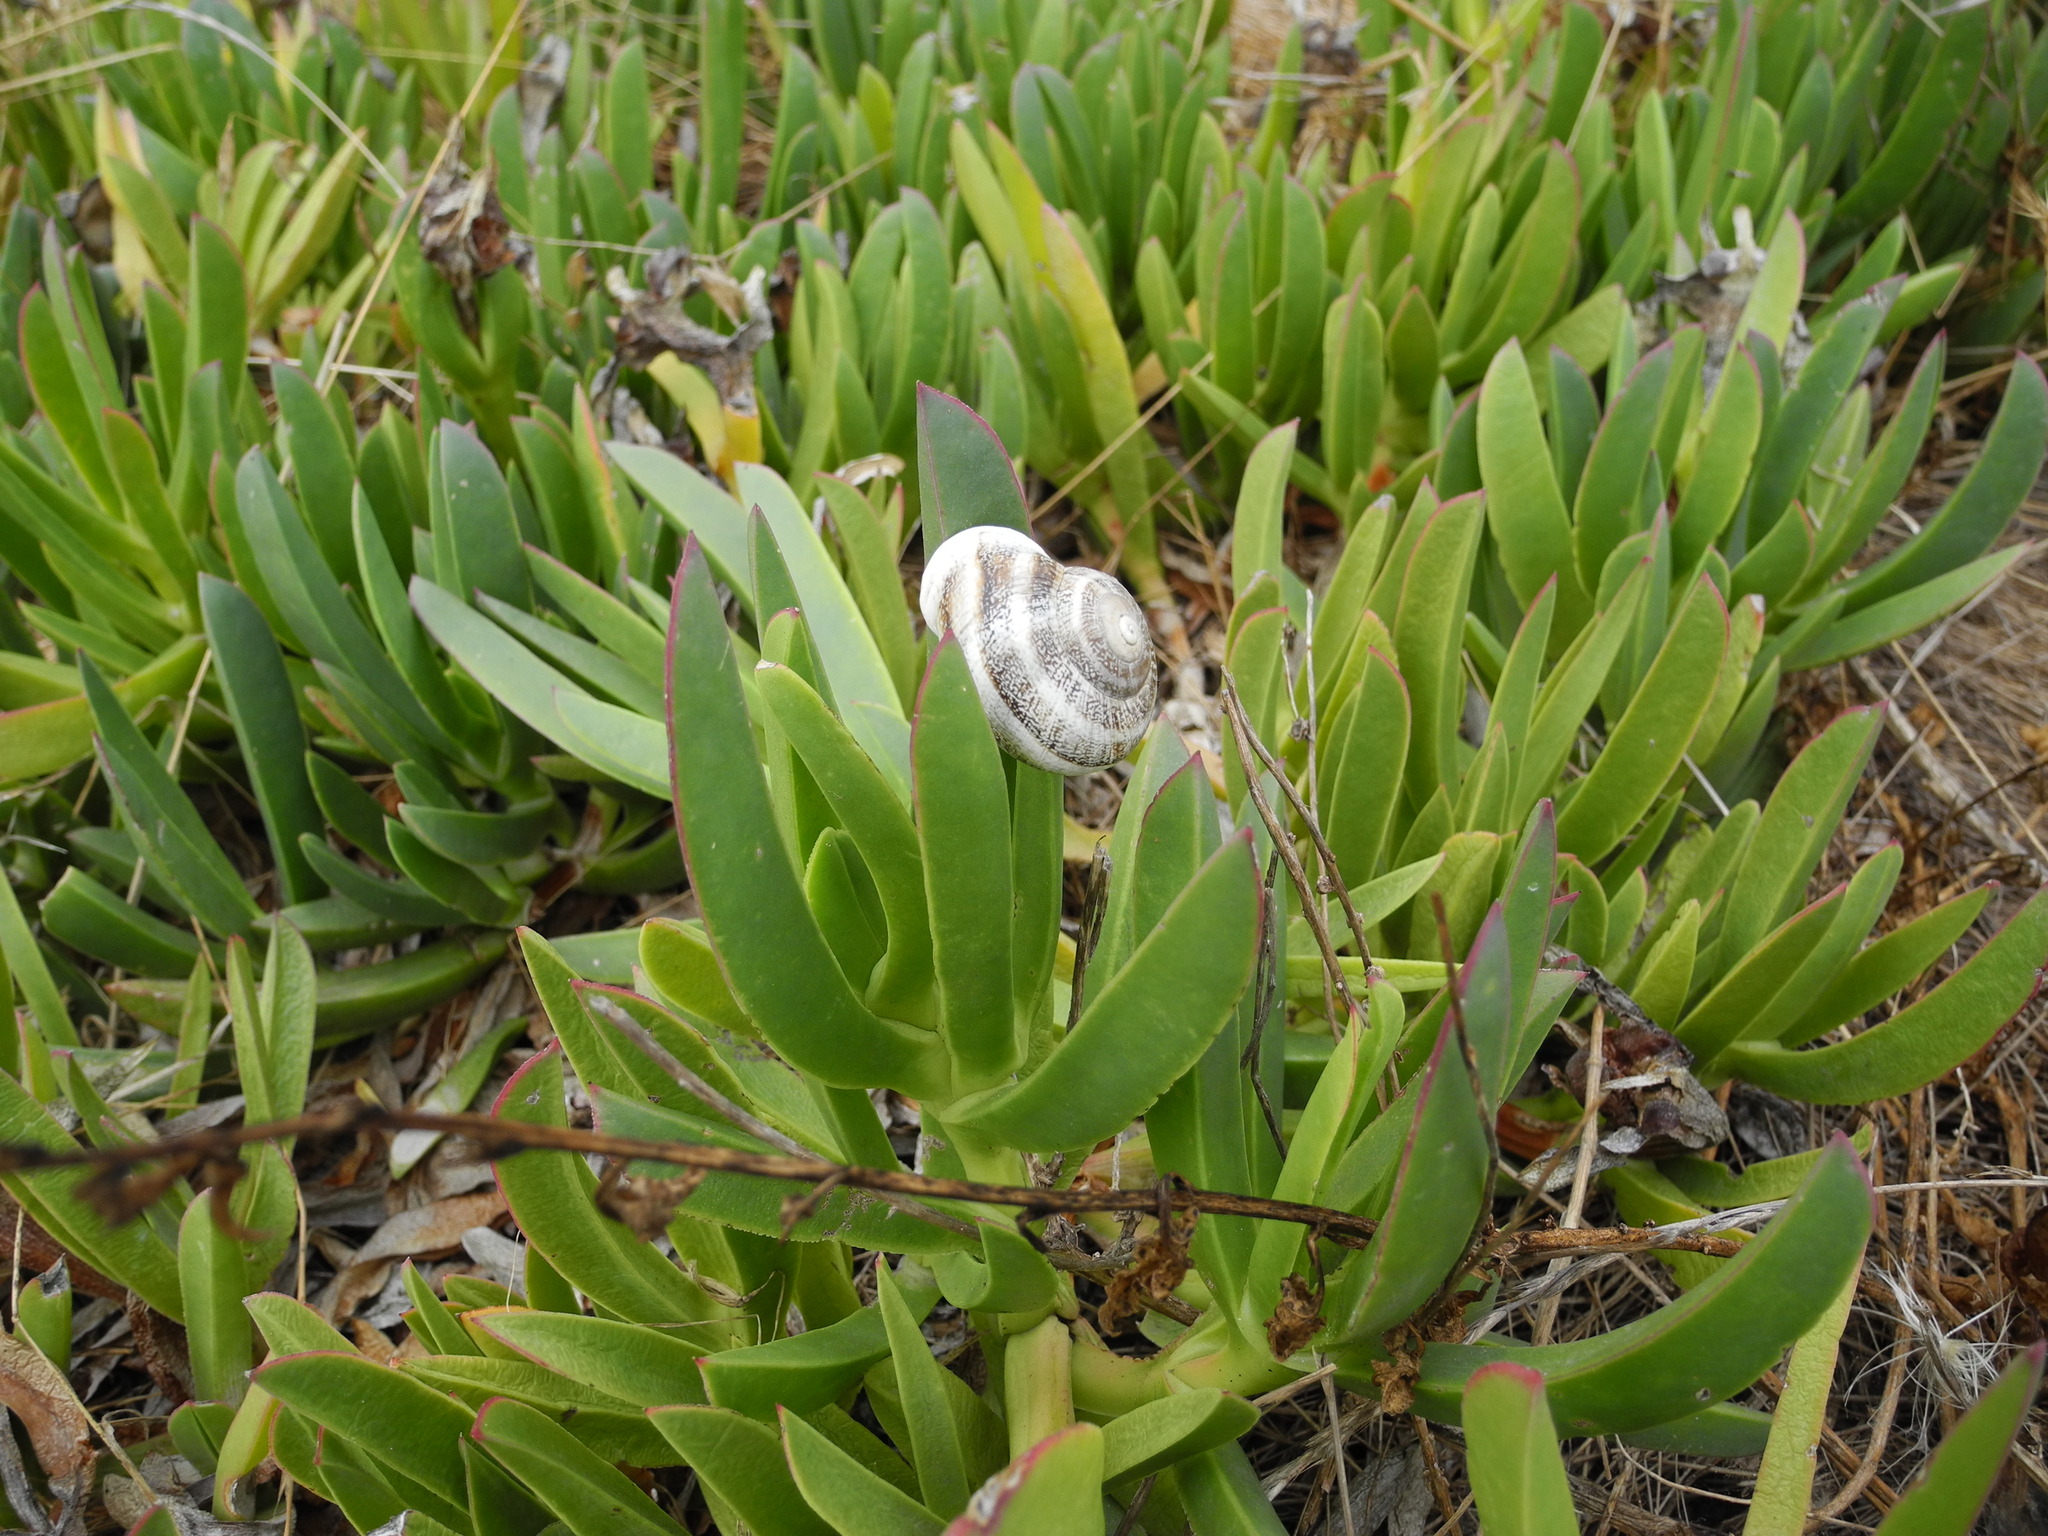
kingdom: Animalia
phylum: Mollusca
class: Gastropoda
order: Stylommatophora
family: Helicidae
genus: Otala
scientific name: Otala lactea
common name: Milk snail
